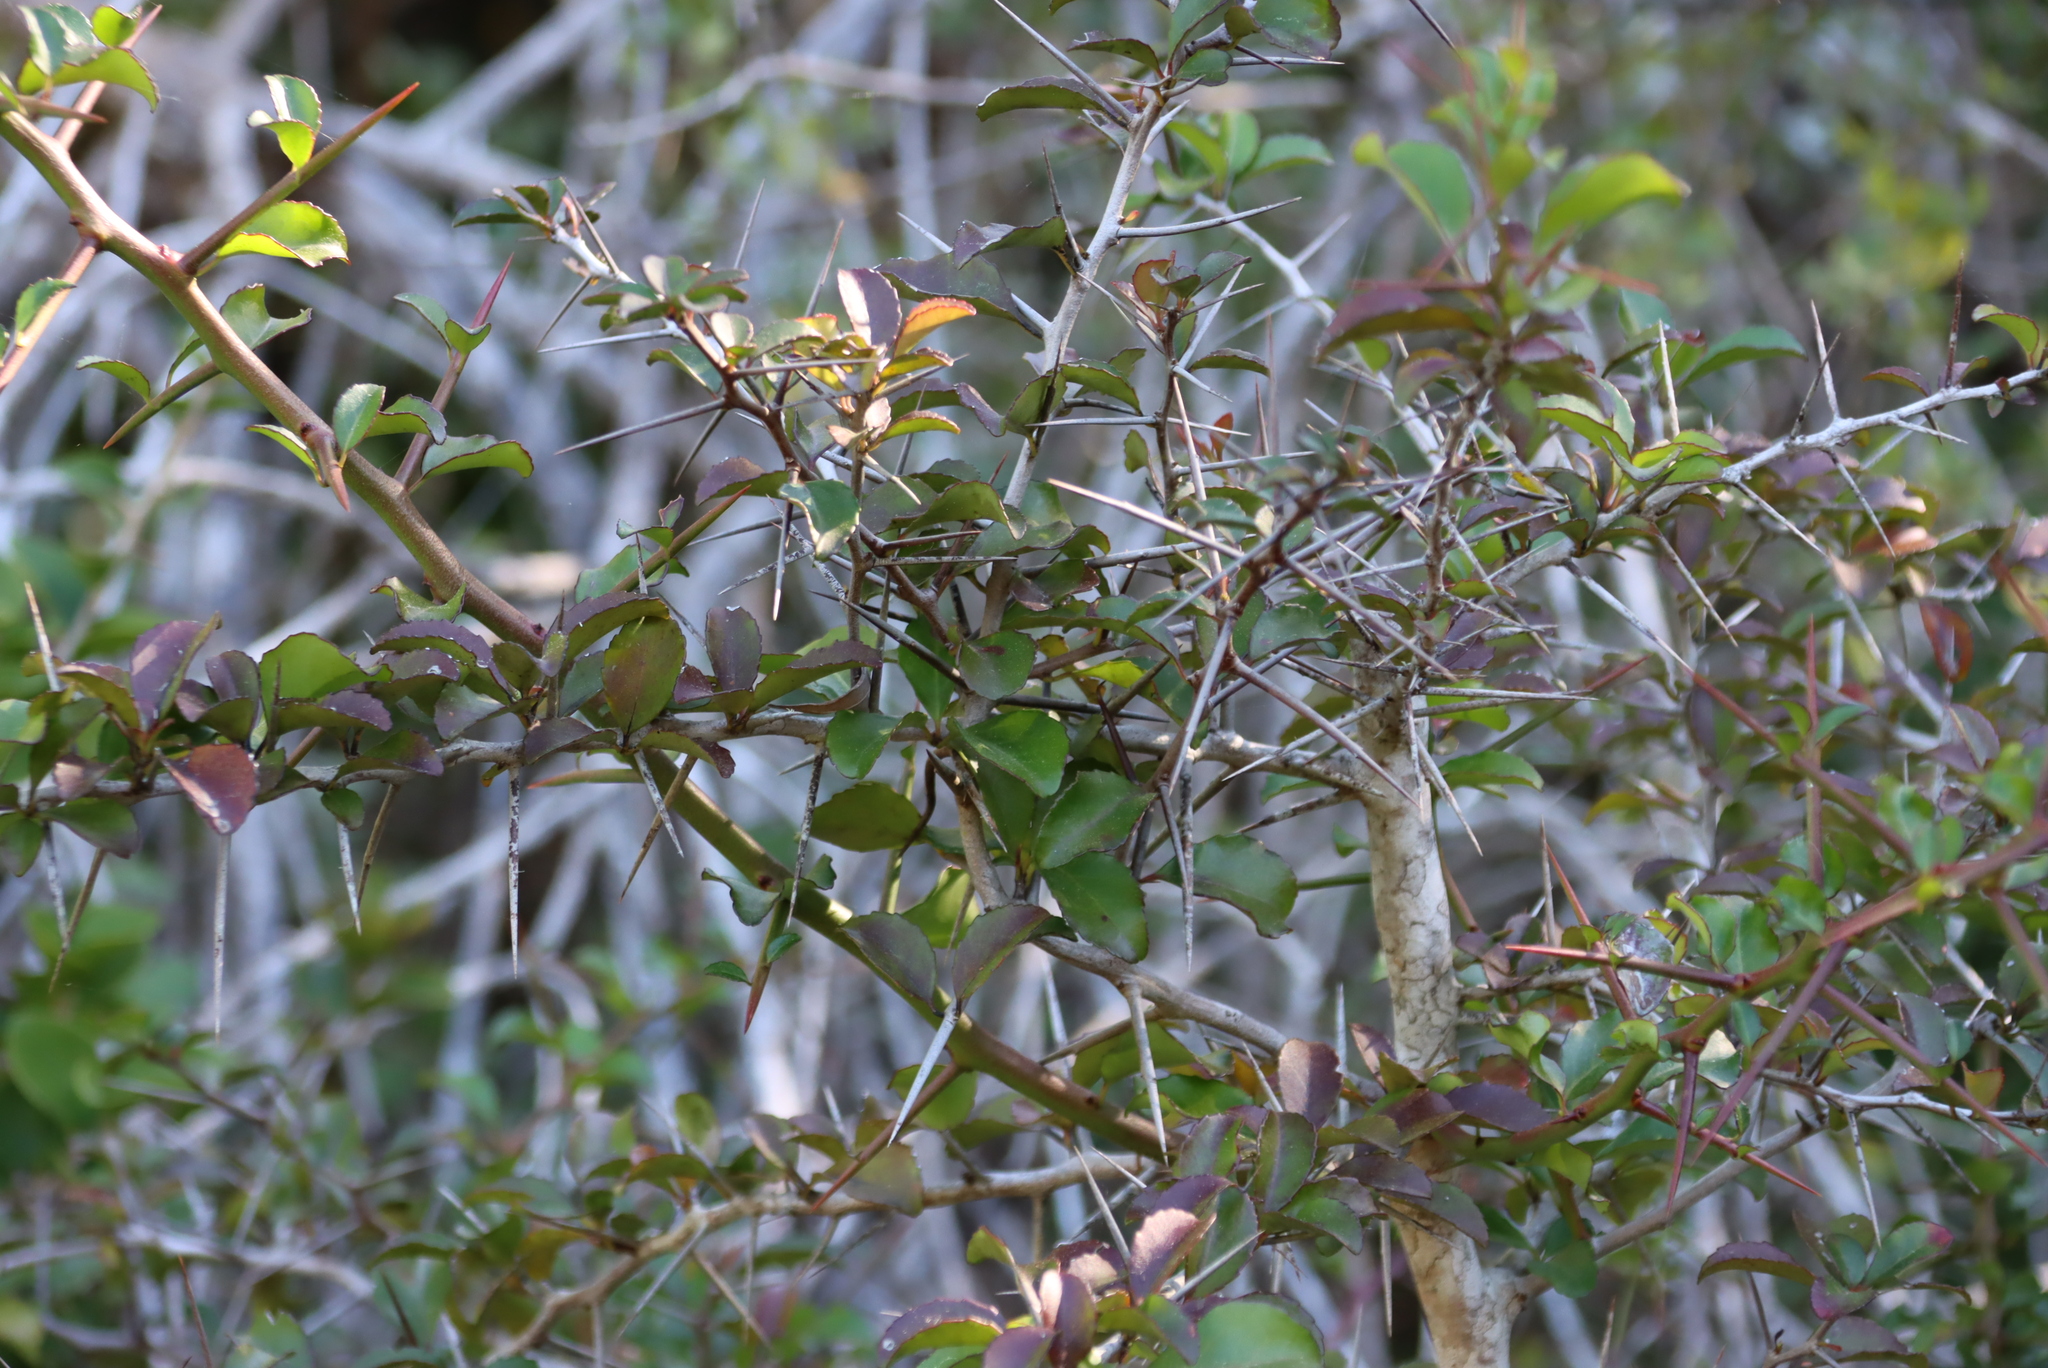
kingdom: Plantae
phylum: Tracheophyta
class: Magnoliopsida
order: Celastrales
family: Celastraceae
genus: Putterlickia
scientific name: Putterlickia pyracantha
